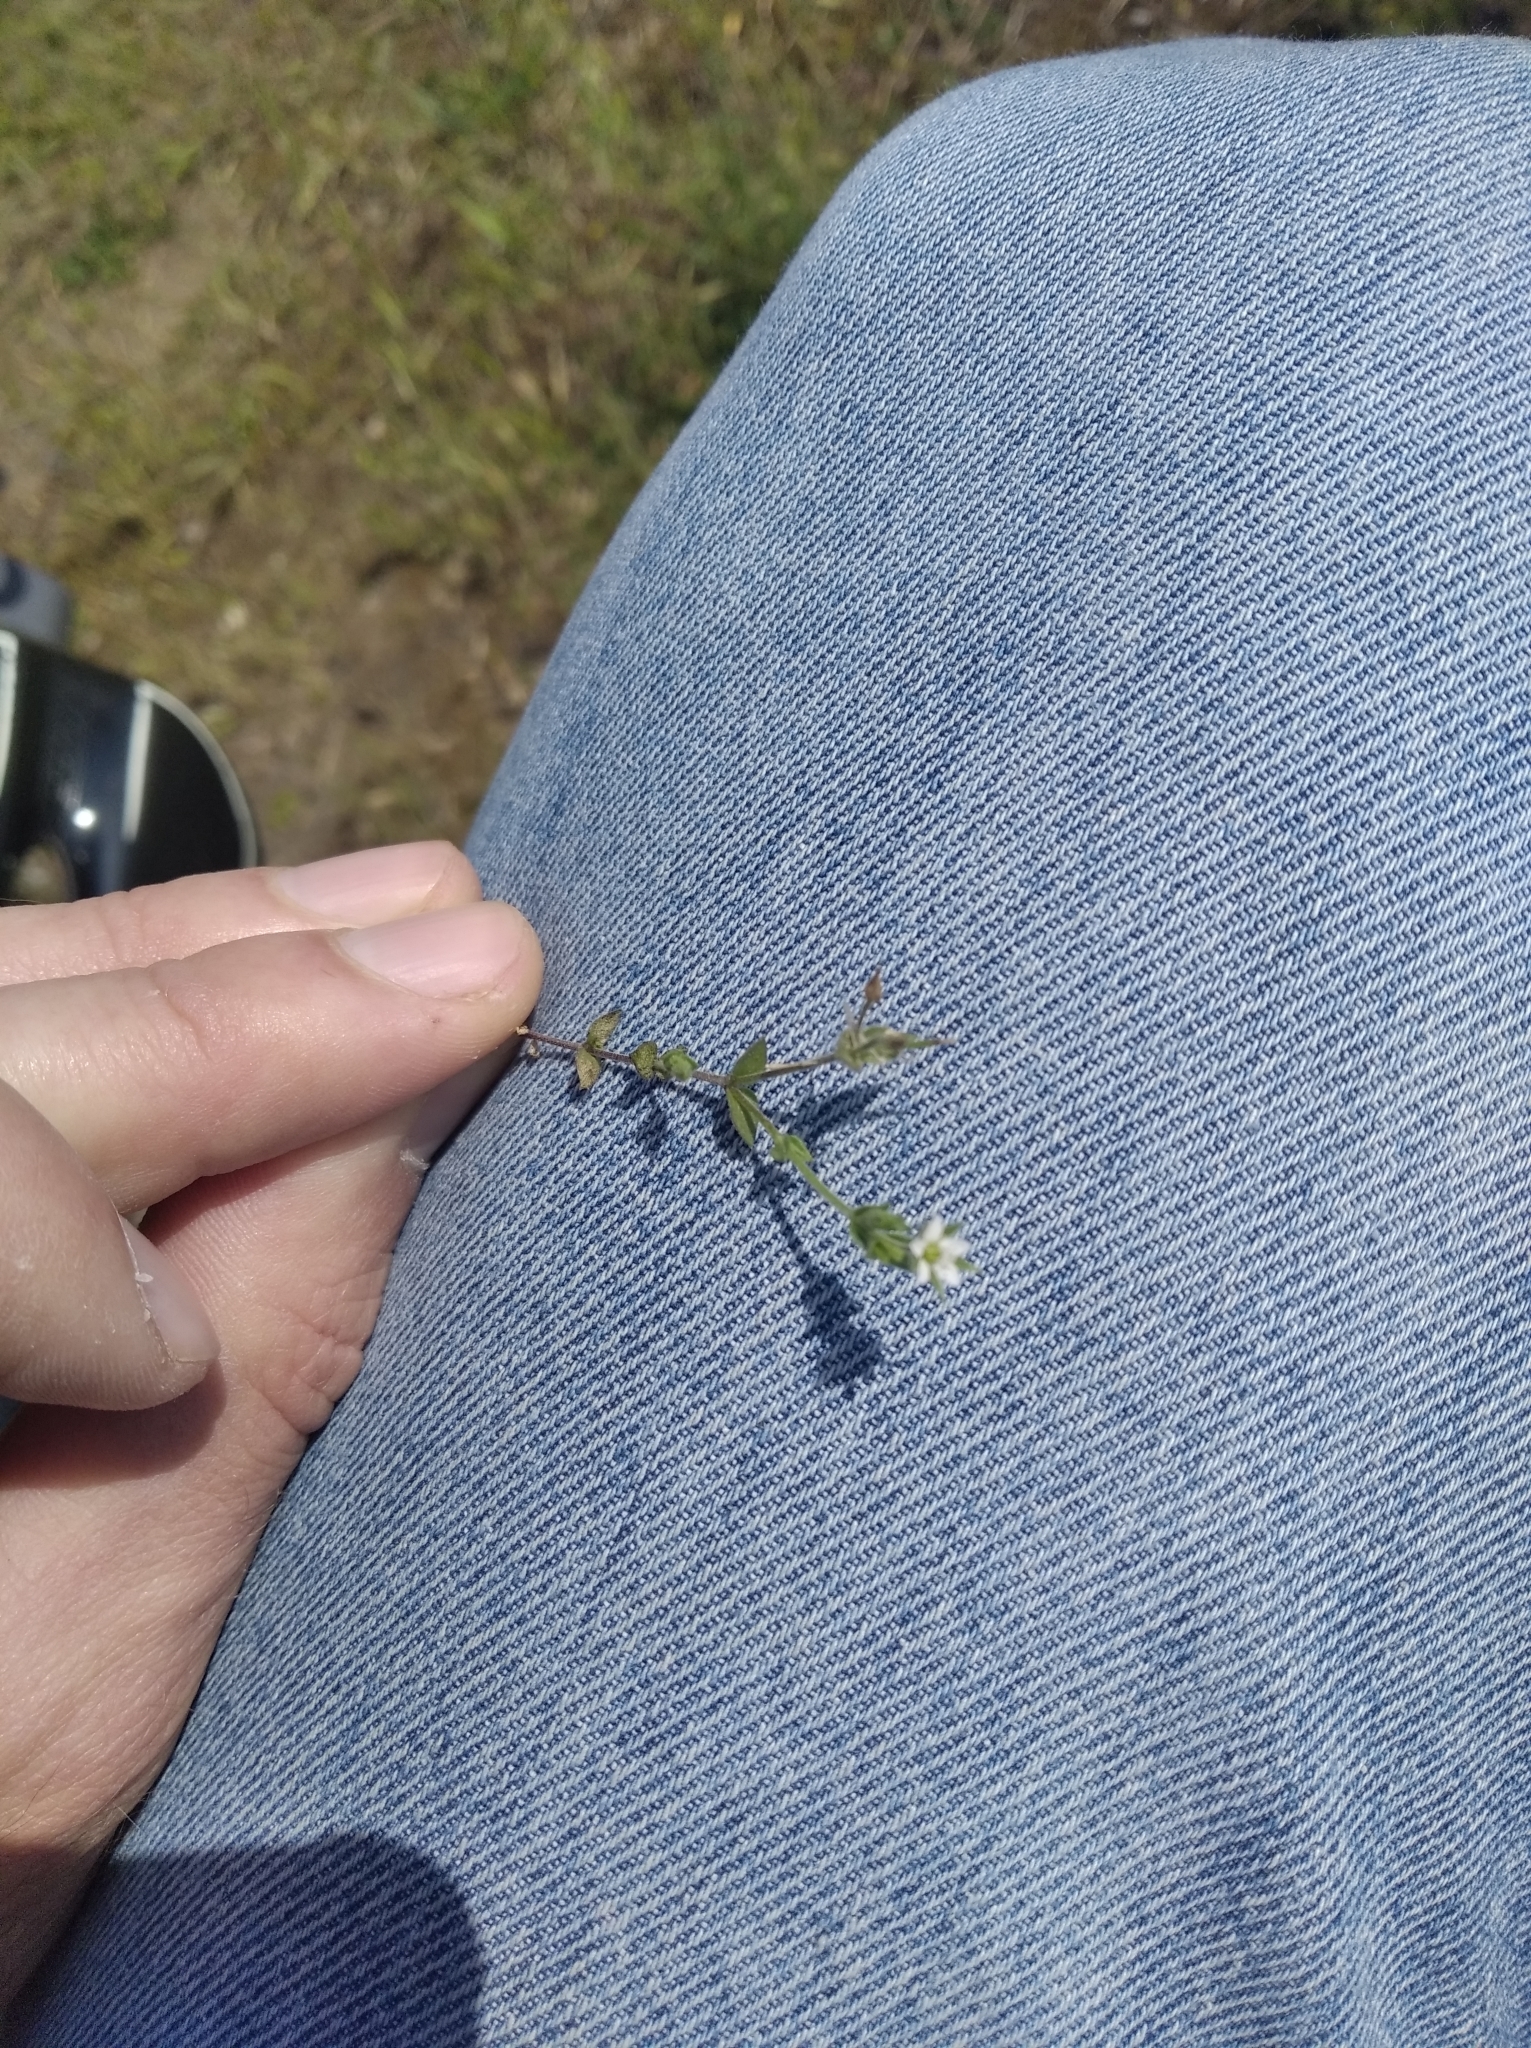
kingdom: Plantae
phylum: Tracheophyta
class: Magnoliopsida
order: Caryophyllales
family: Caryophyllaceae
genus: Arenaria
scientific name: Arenaria serpyllifolia
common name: Thyme-leaved sandwort
